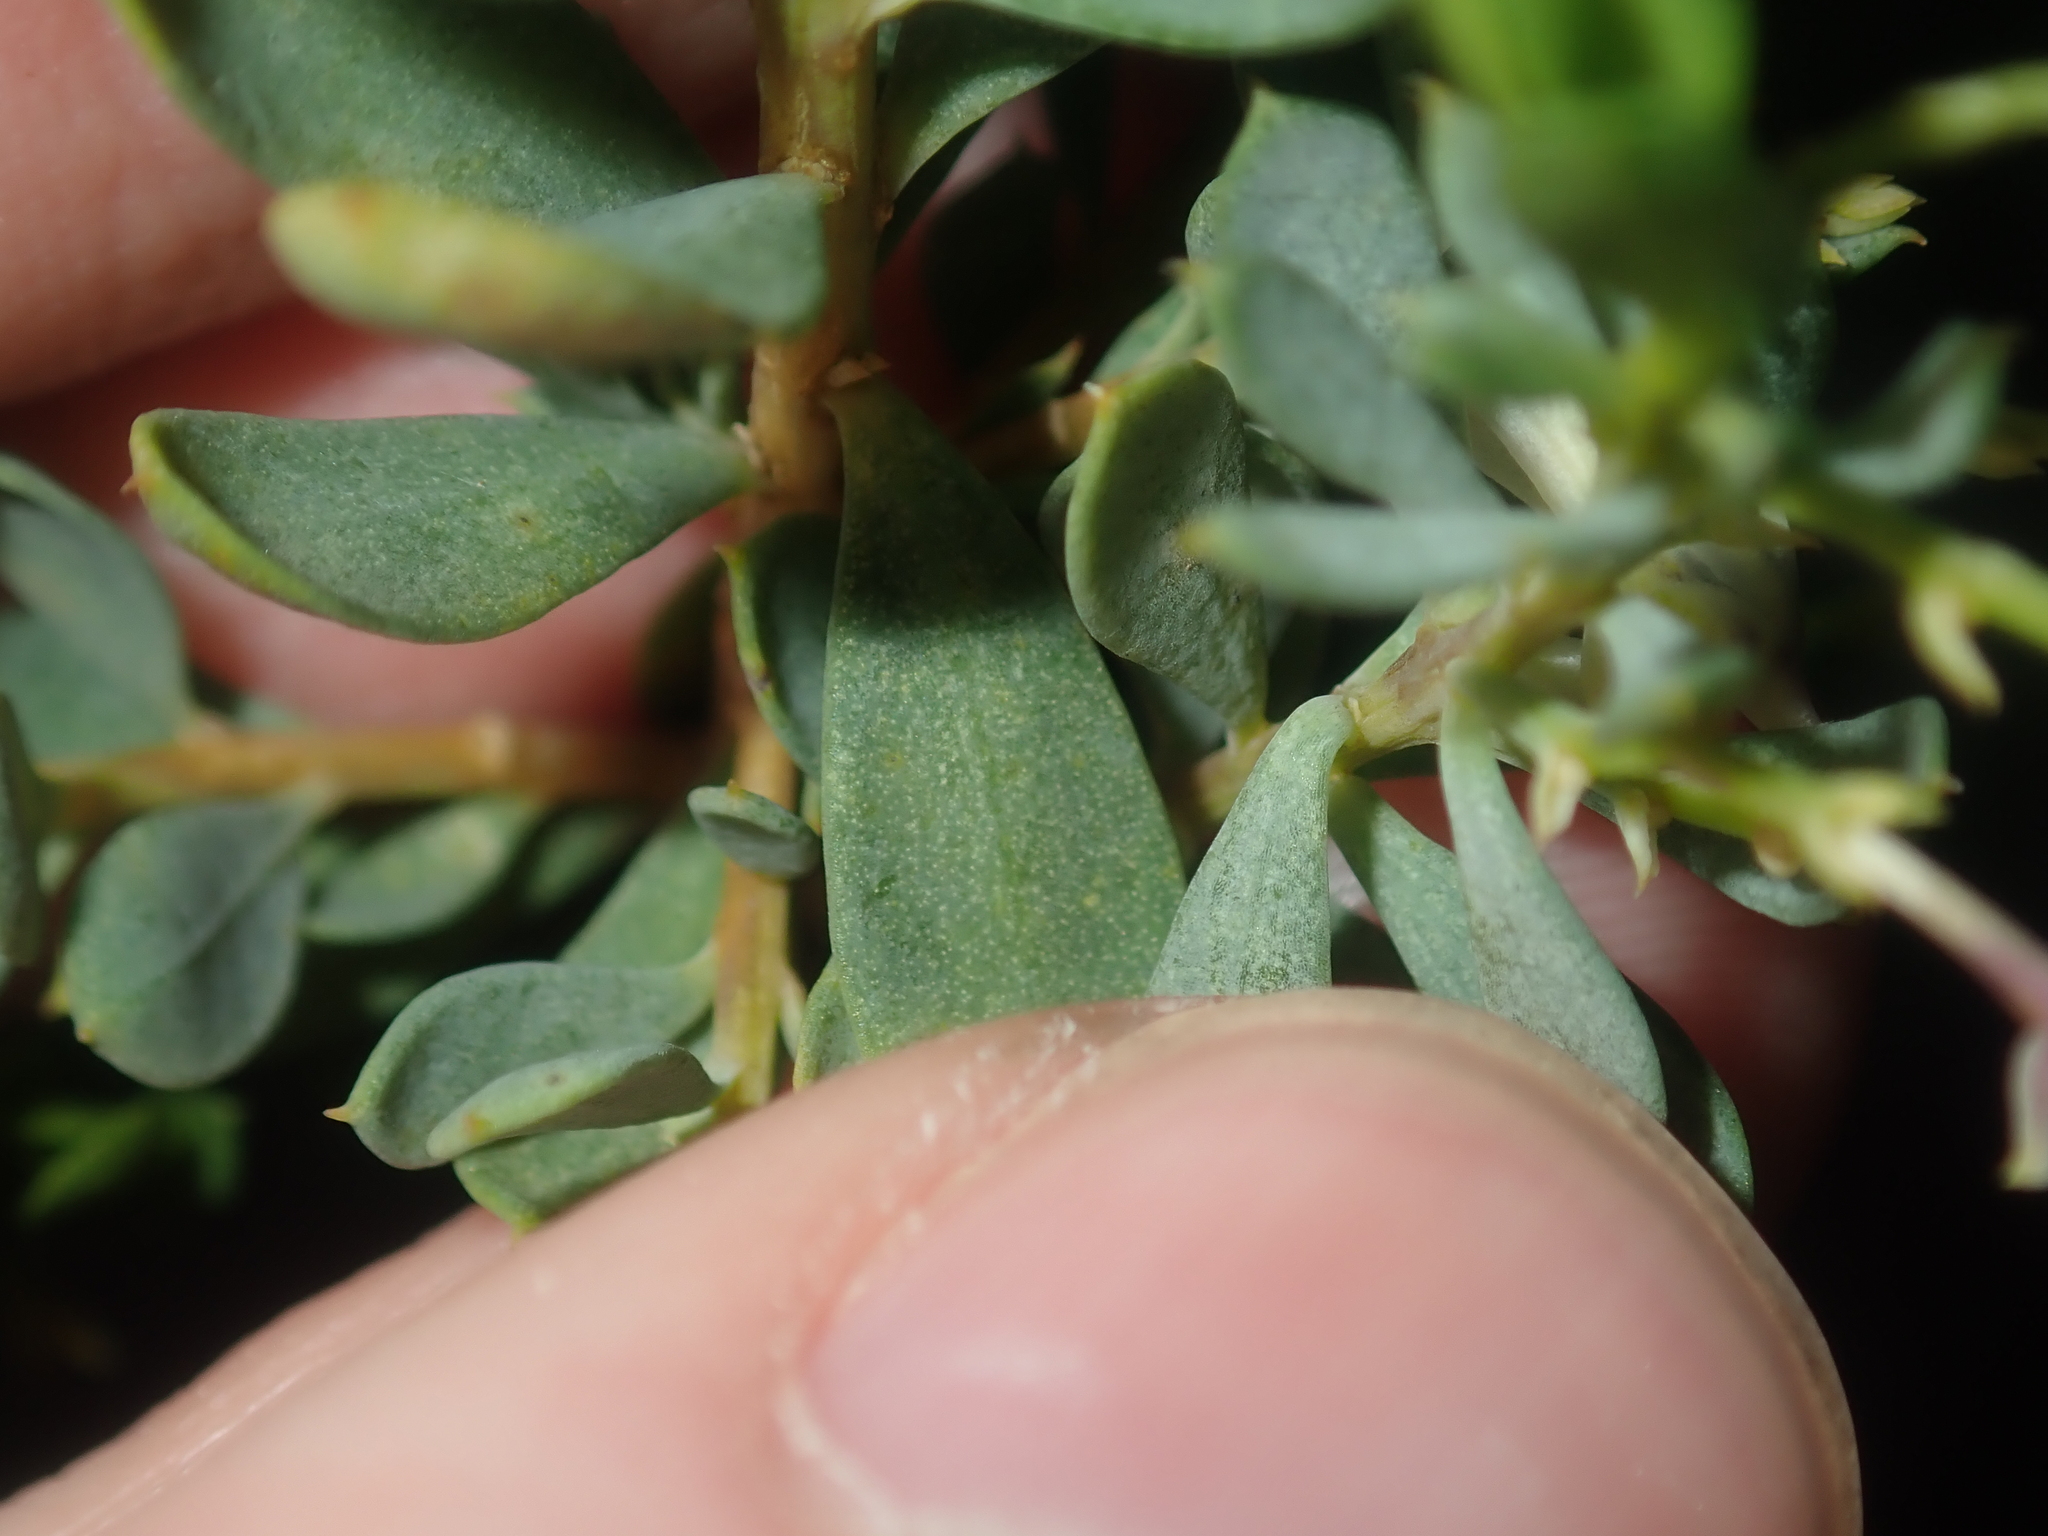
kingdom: Plantae
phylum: Tracheophyta
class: Magnoliopsida
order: Malpighiales
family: Violaceae
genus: Pigea
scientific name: Pigea floribunda
